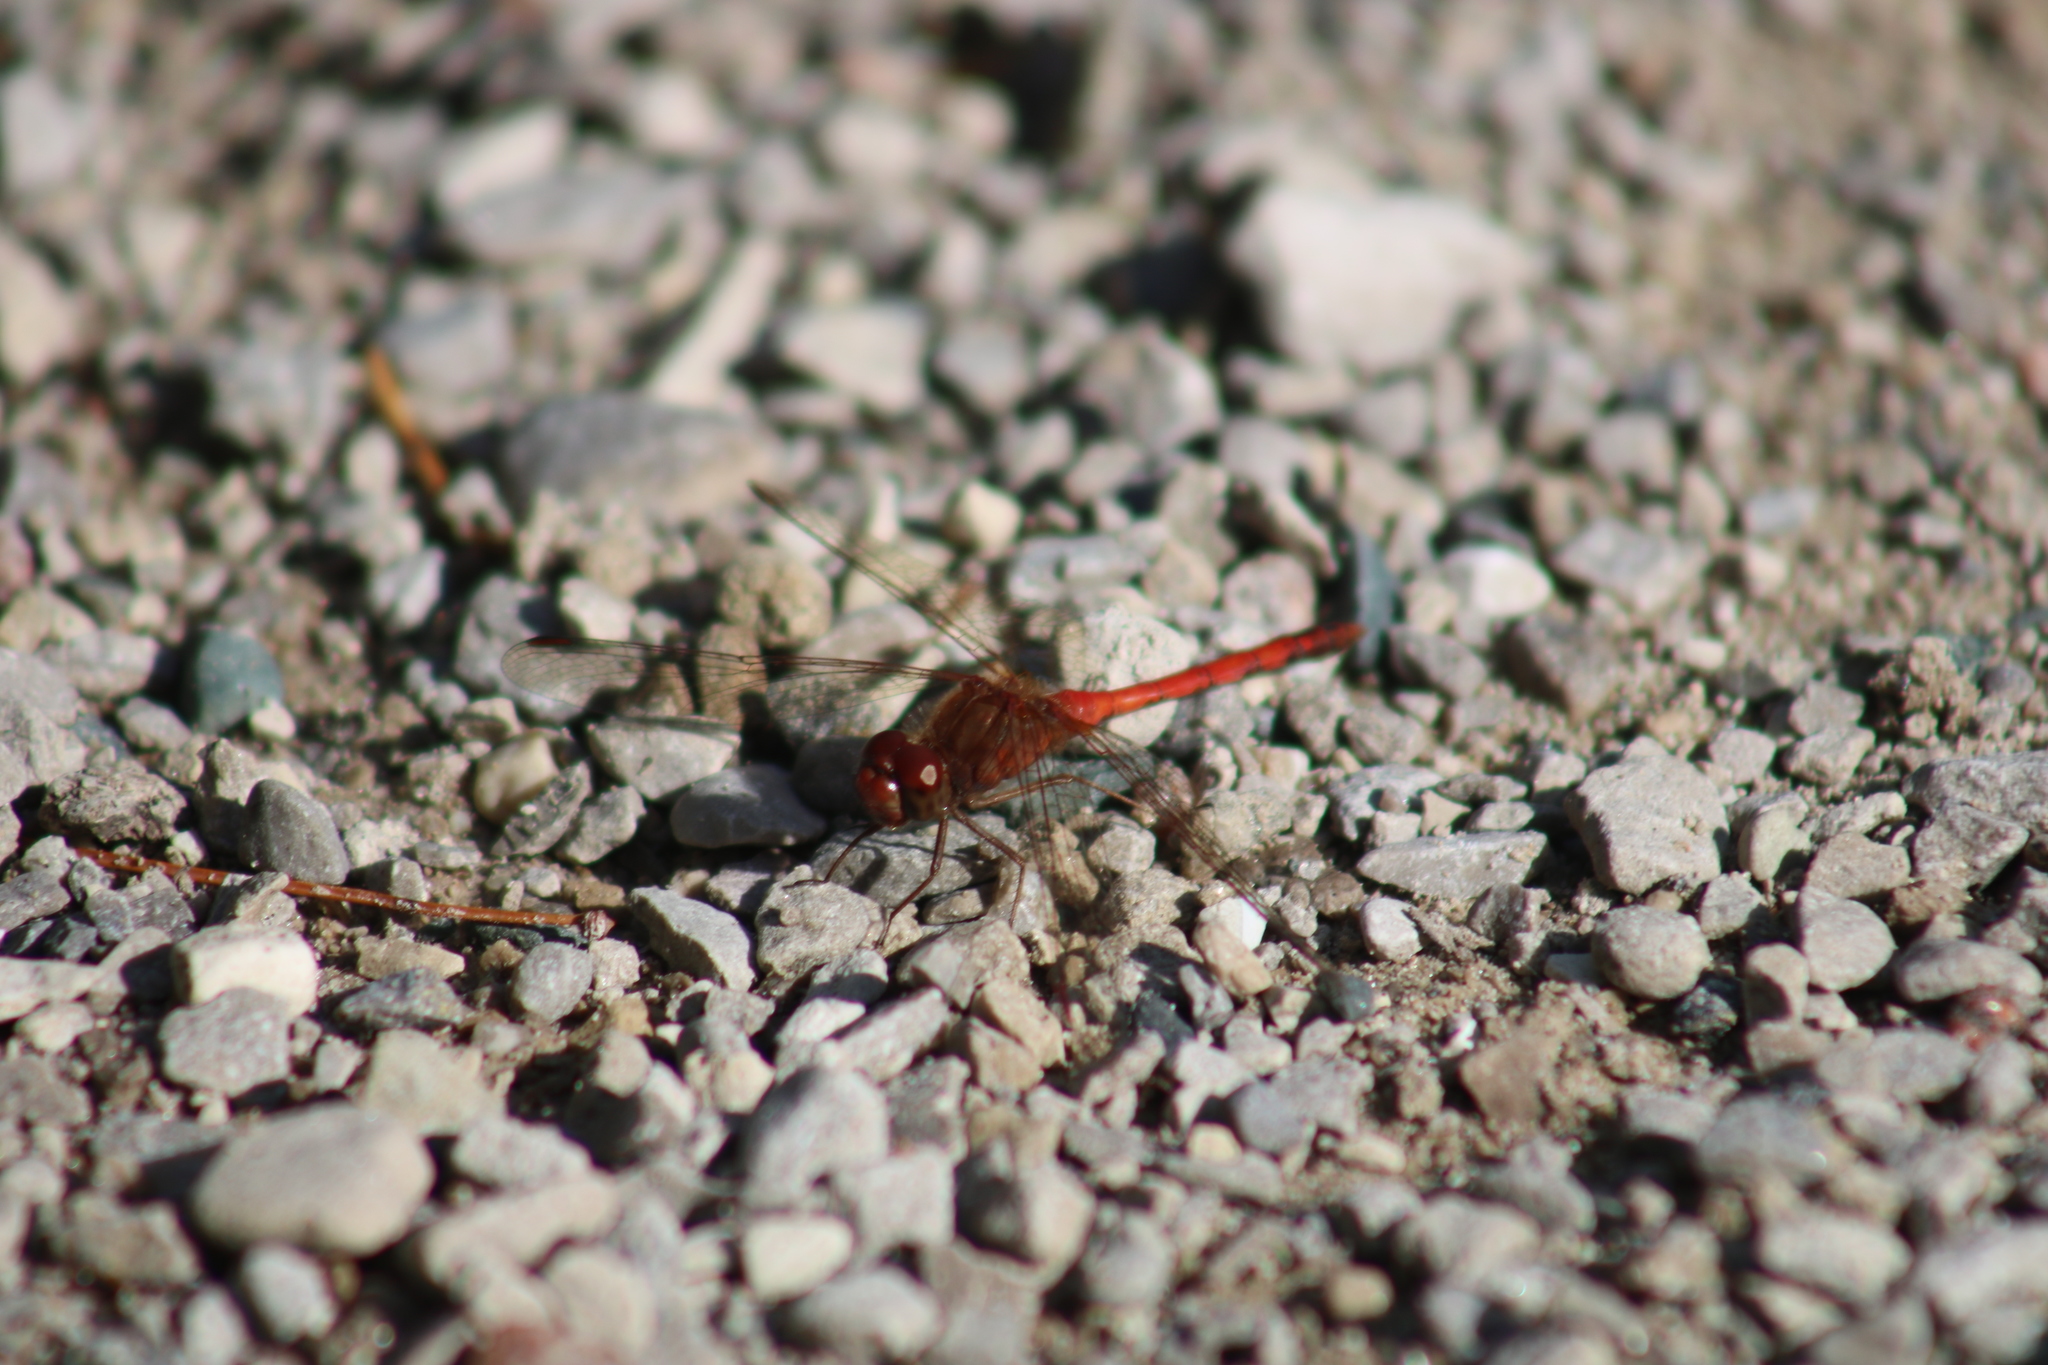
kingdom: Animalia
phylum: Arthropoda
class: Insecta
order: Odonata
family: Libellulidae
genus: Sympetrum
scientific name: Sympetrum vicinum
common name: Autumn meadowhawk
